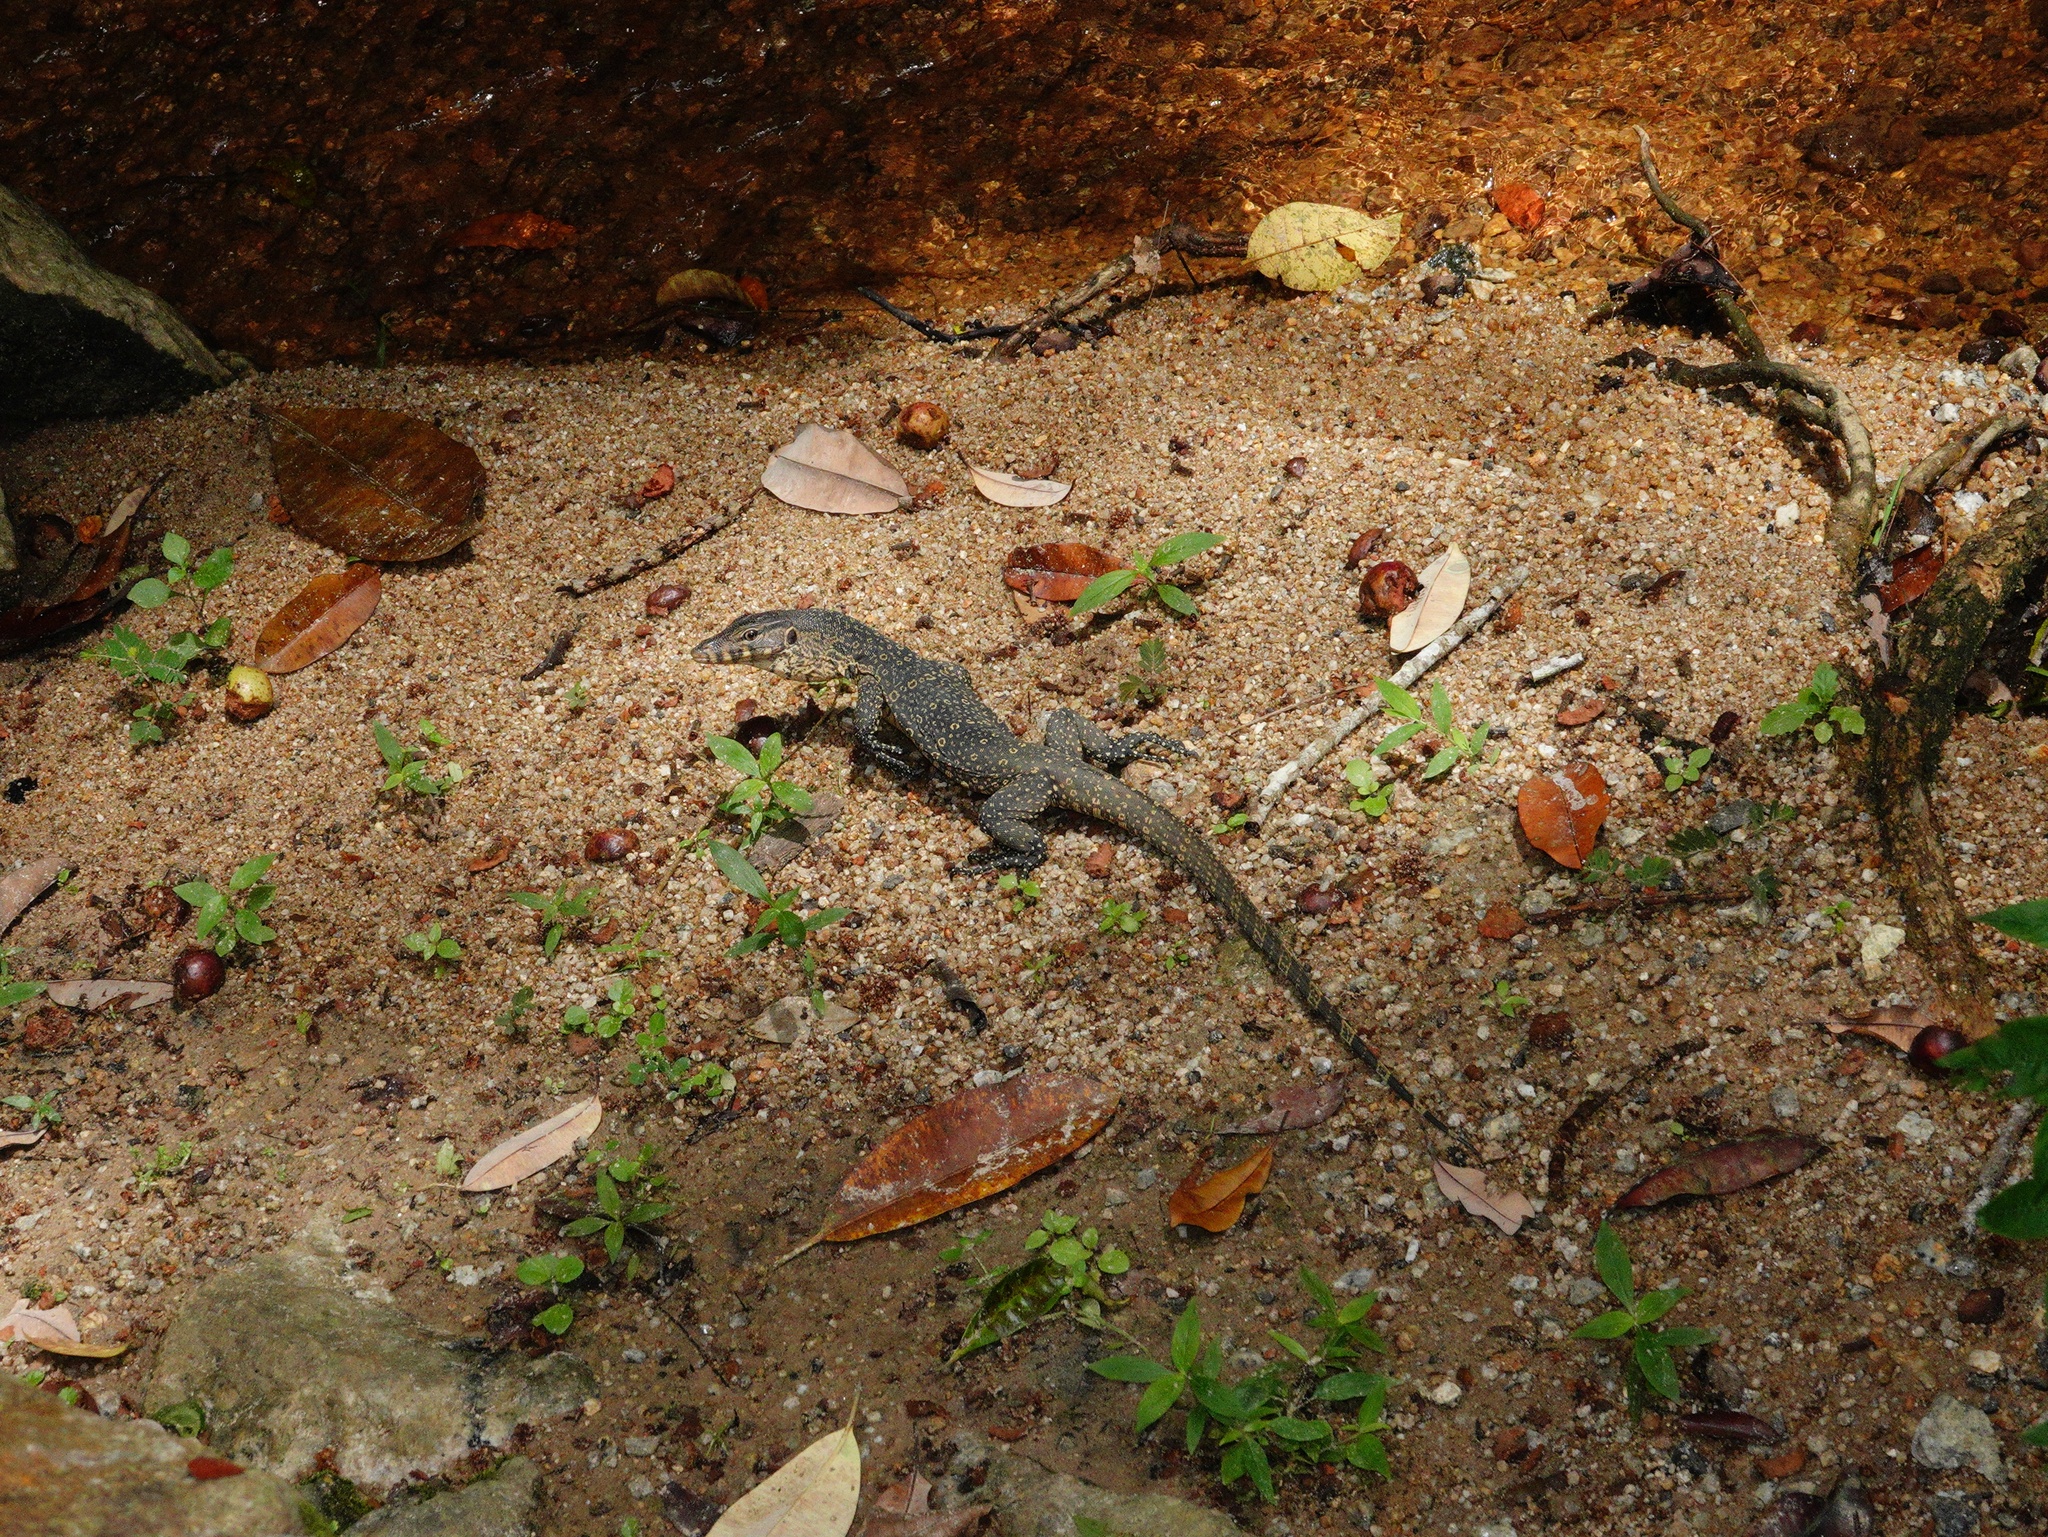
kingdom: Animalia
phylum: Chordata
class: Squamata
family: Varanidae
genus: Varanus
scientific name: Varanus salvator
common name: Common water monitor
